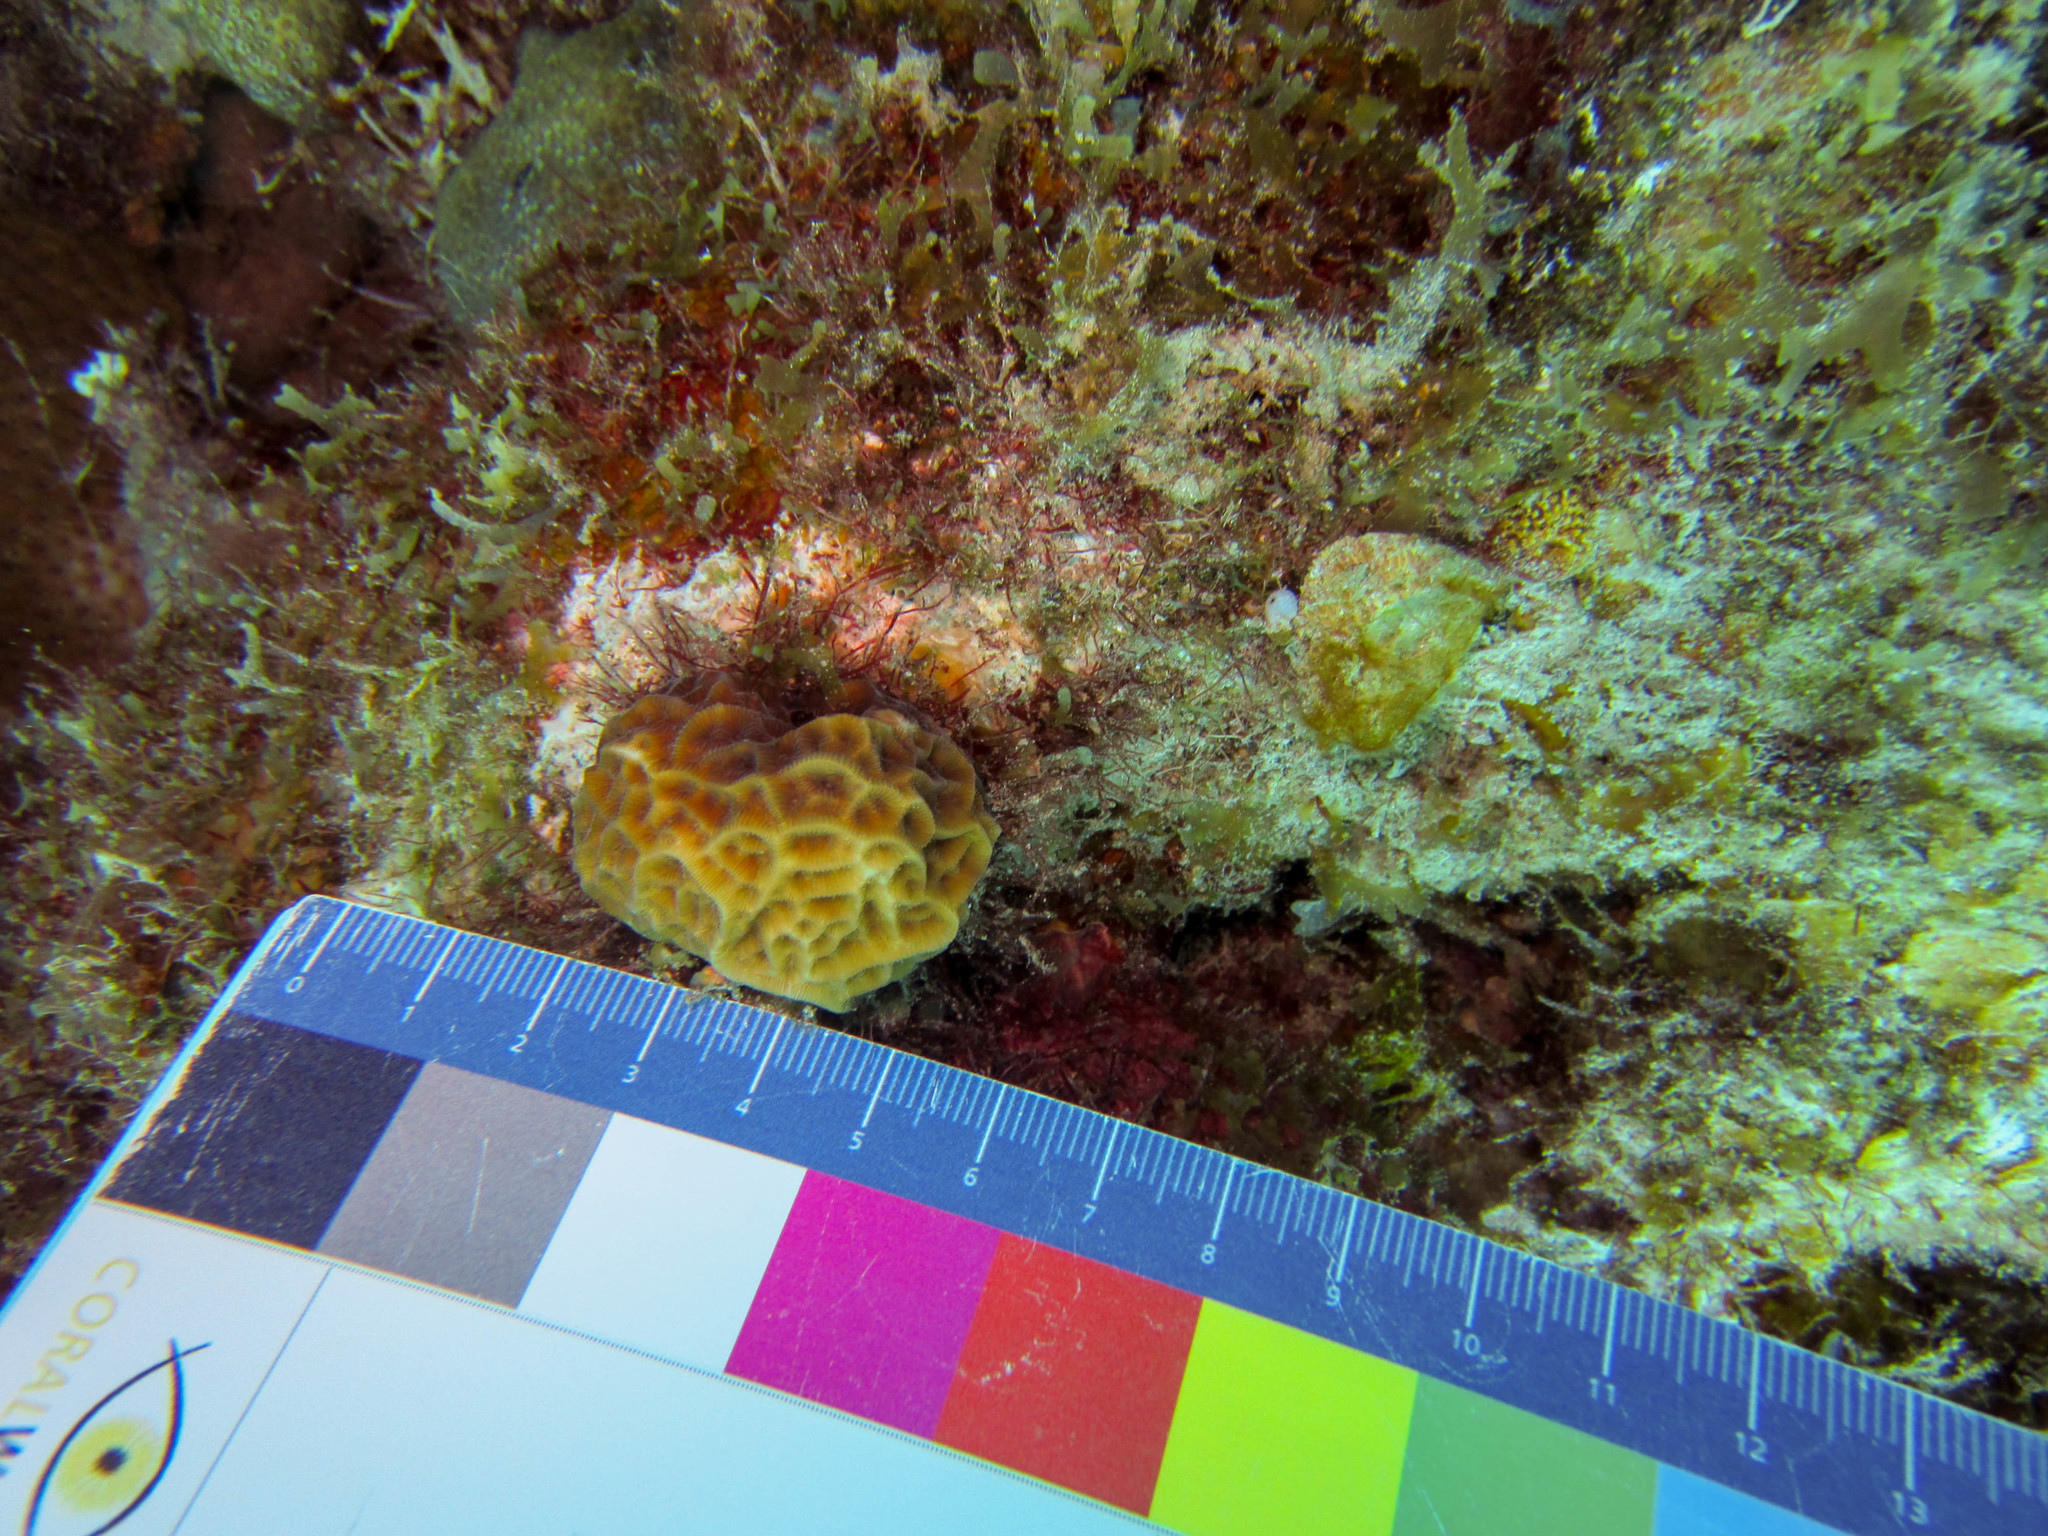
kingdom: Animalia
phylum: Cnidaria
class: Anthozoa
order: Scleractinia
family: Agariciidae
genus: Agaricia
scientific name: Agaricia humilis
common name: Lowrelief lettuce coral
